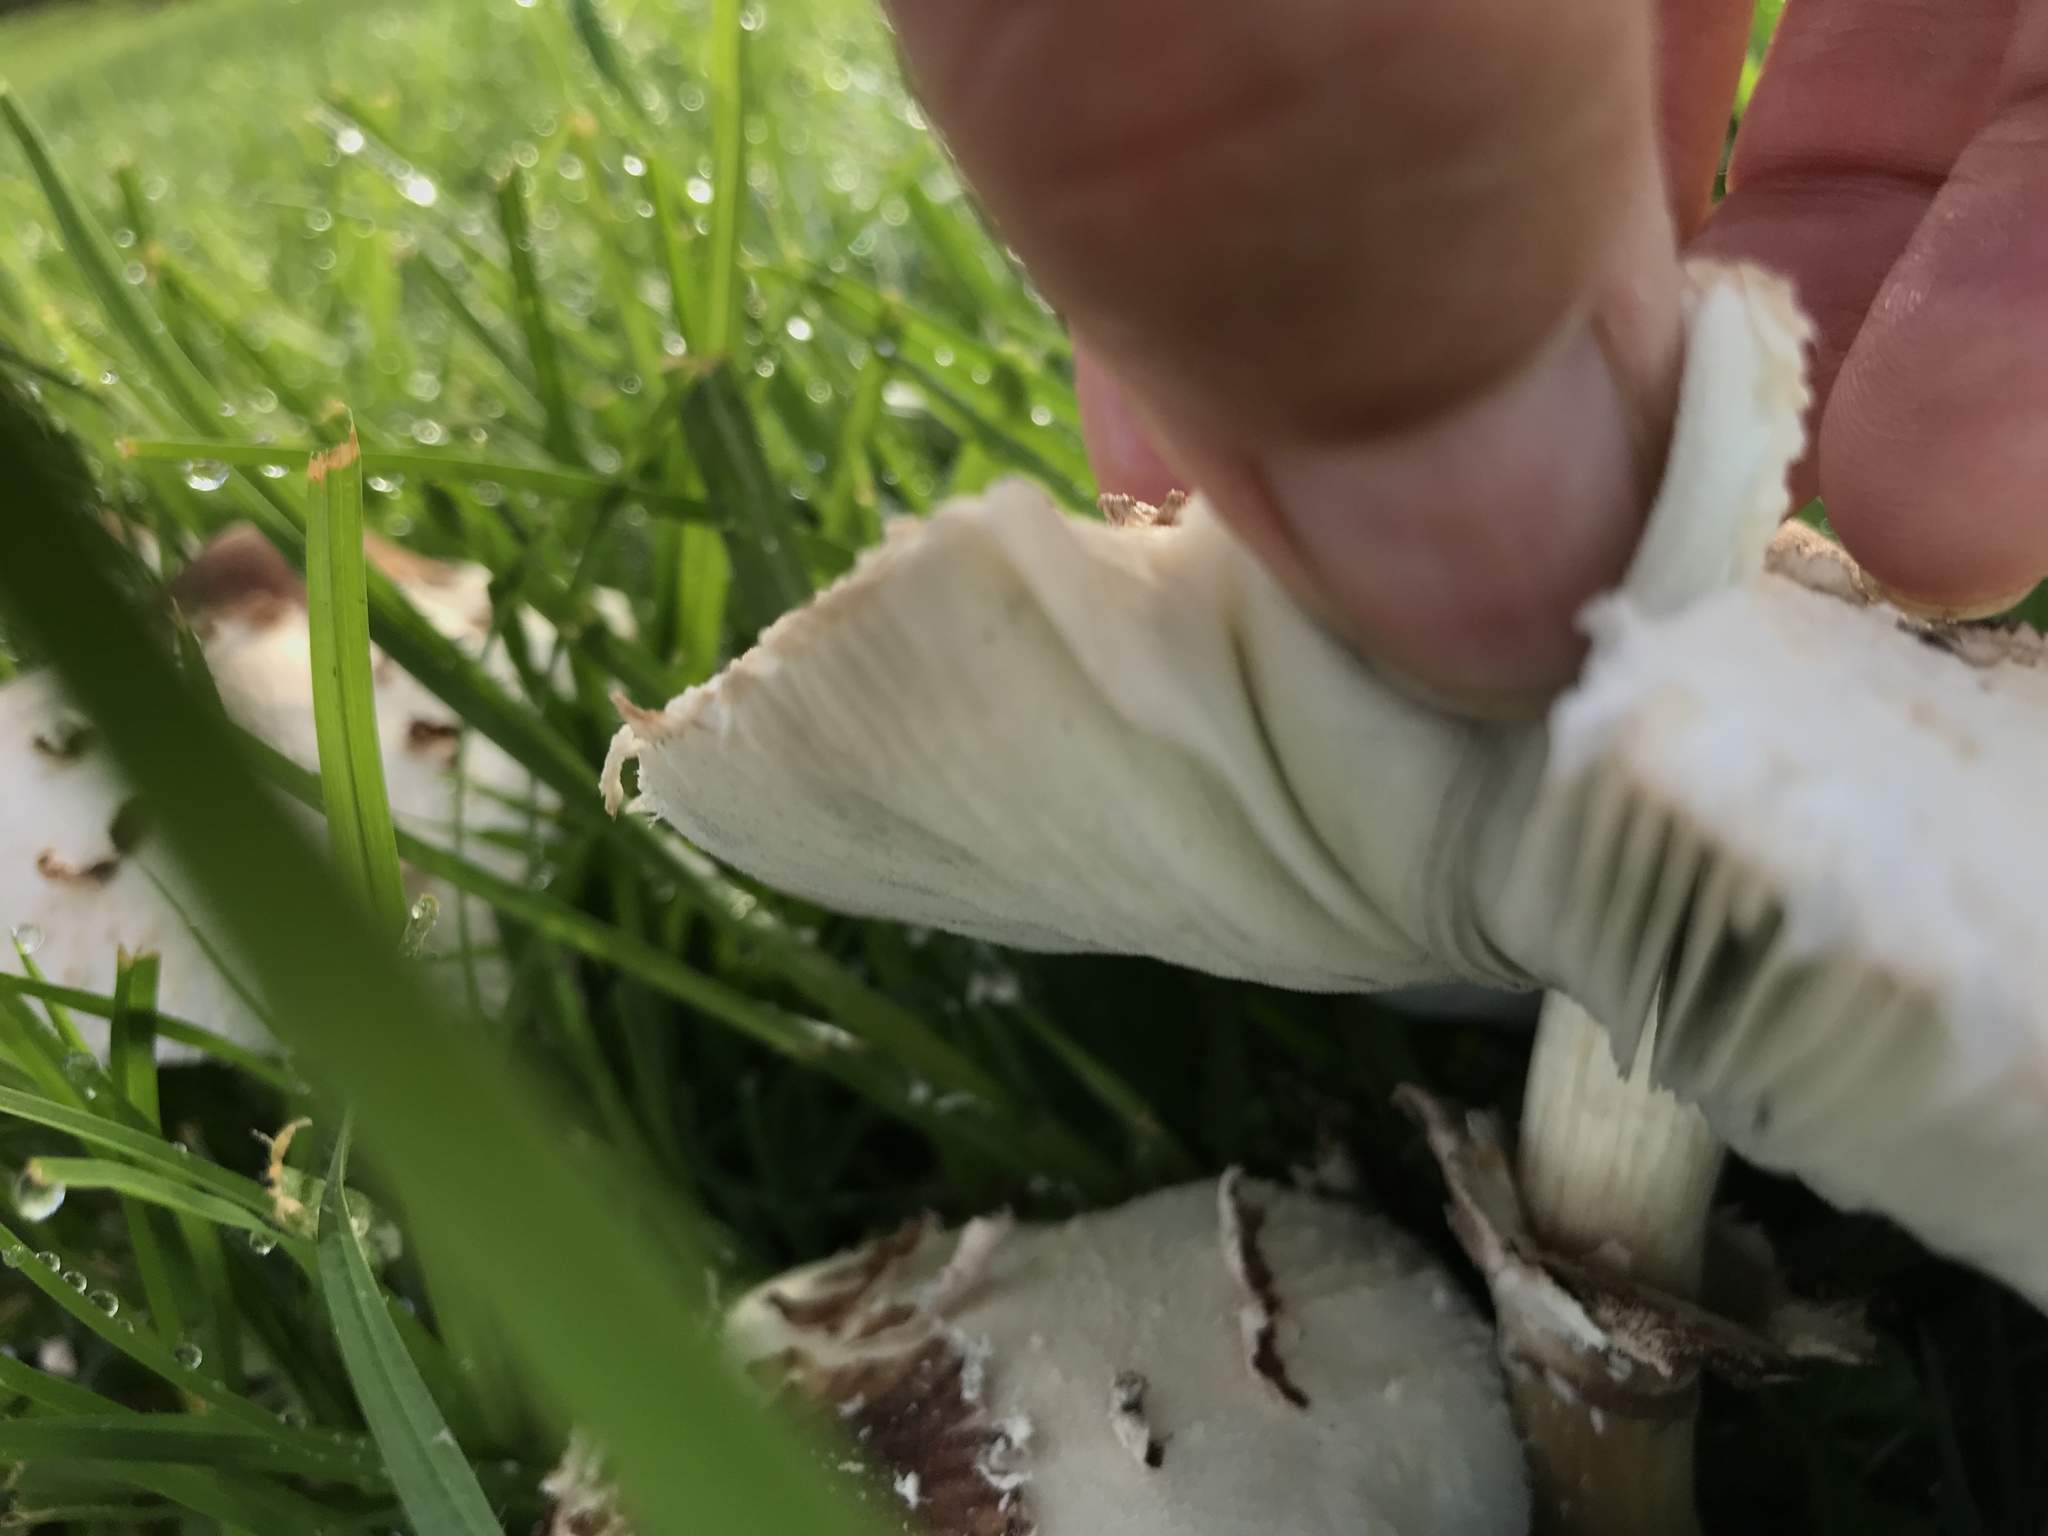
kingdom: Fungi
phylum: Basidiomycota
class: Agaricomycetes
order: Agaricales
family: Agaricaceae
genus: Chlorophyllum
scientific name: Chlorophyllum molybdites
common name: False parasol
